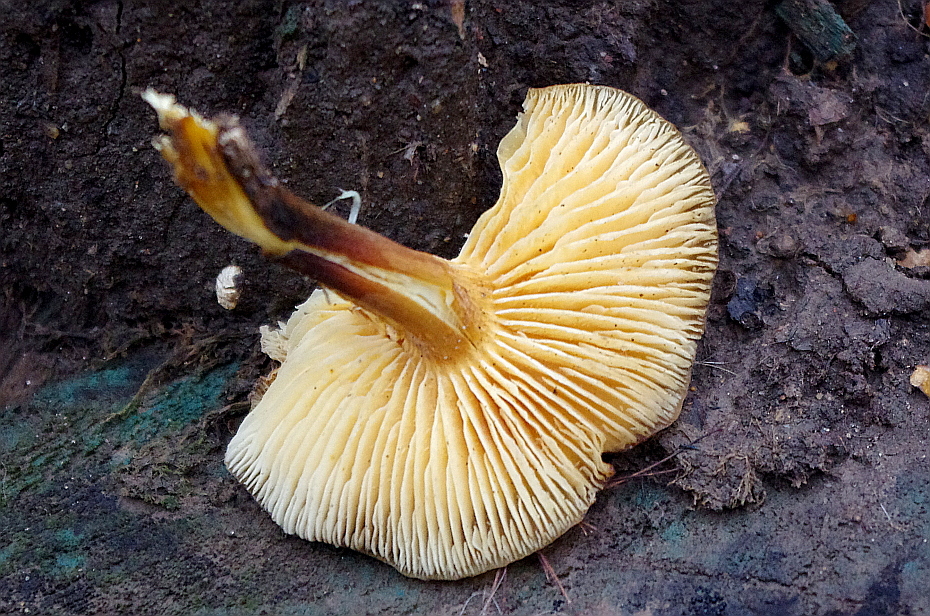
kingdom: Fungi
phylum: Basidiomycota
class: Agaricomycetes
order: Agaricales
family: Physalacriaceae
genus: Flammulina
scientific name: Flammulina
